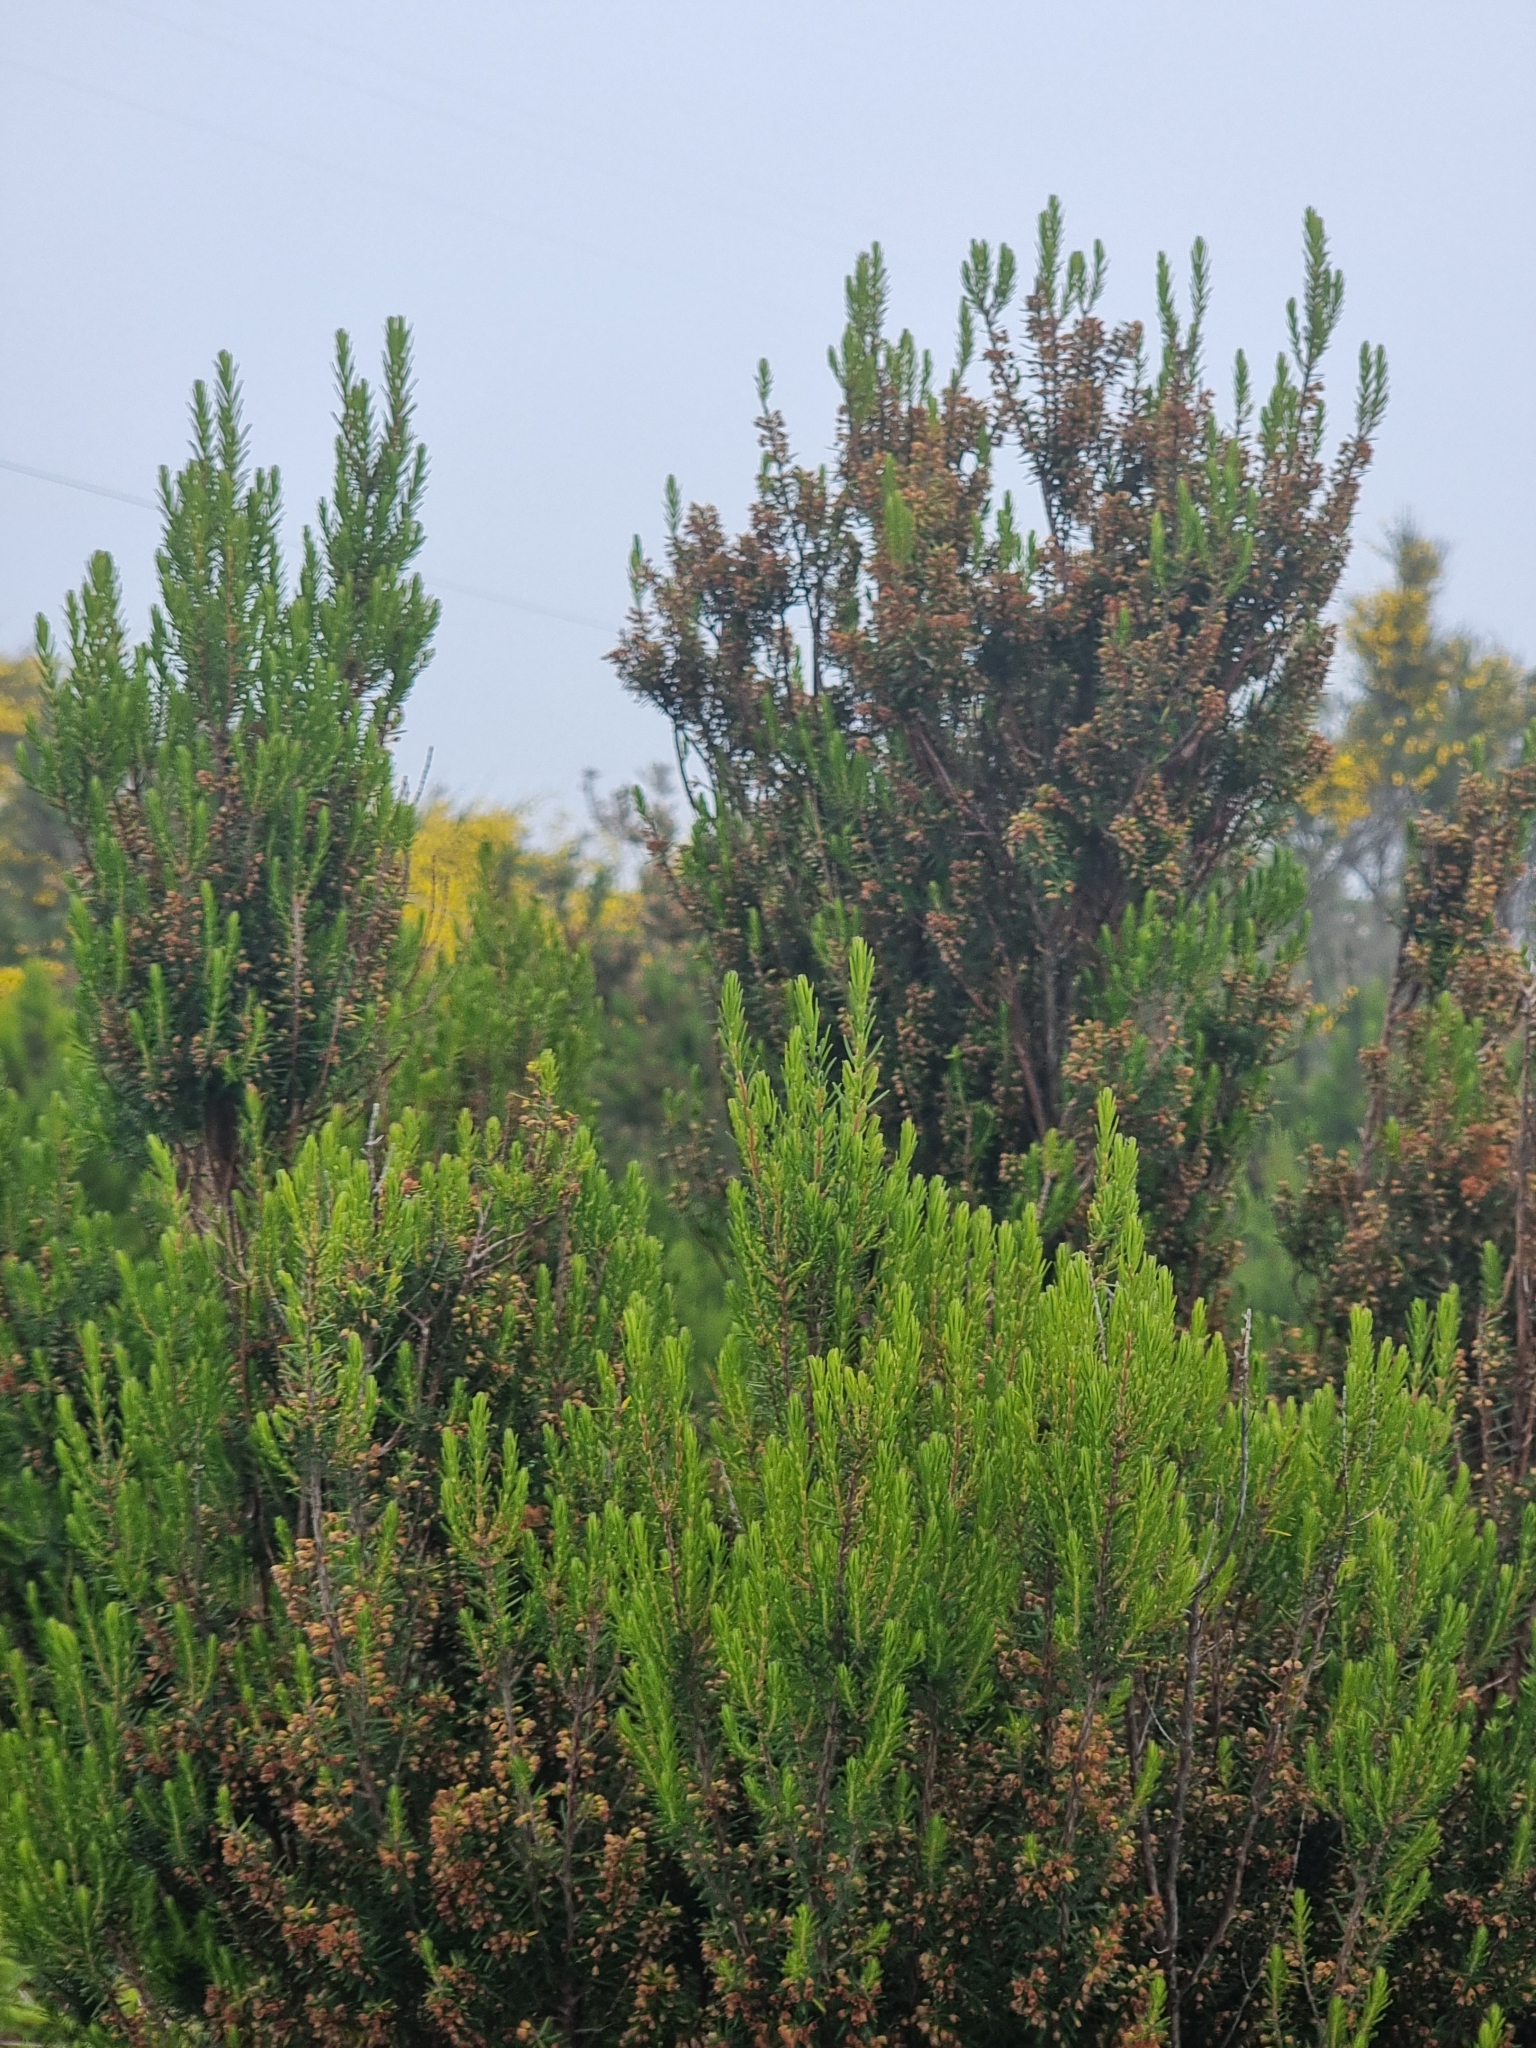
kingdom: Plantae
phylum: Tracheophyta
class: Magnoliopsida
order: Ericales
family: Ericaceae
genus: Erica
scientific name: Erica platycodon
